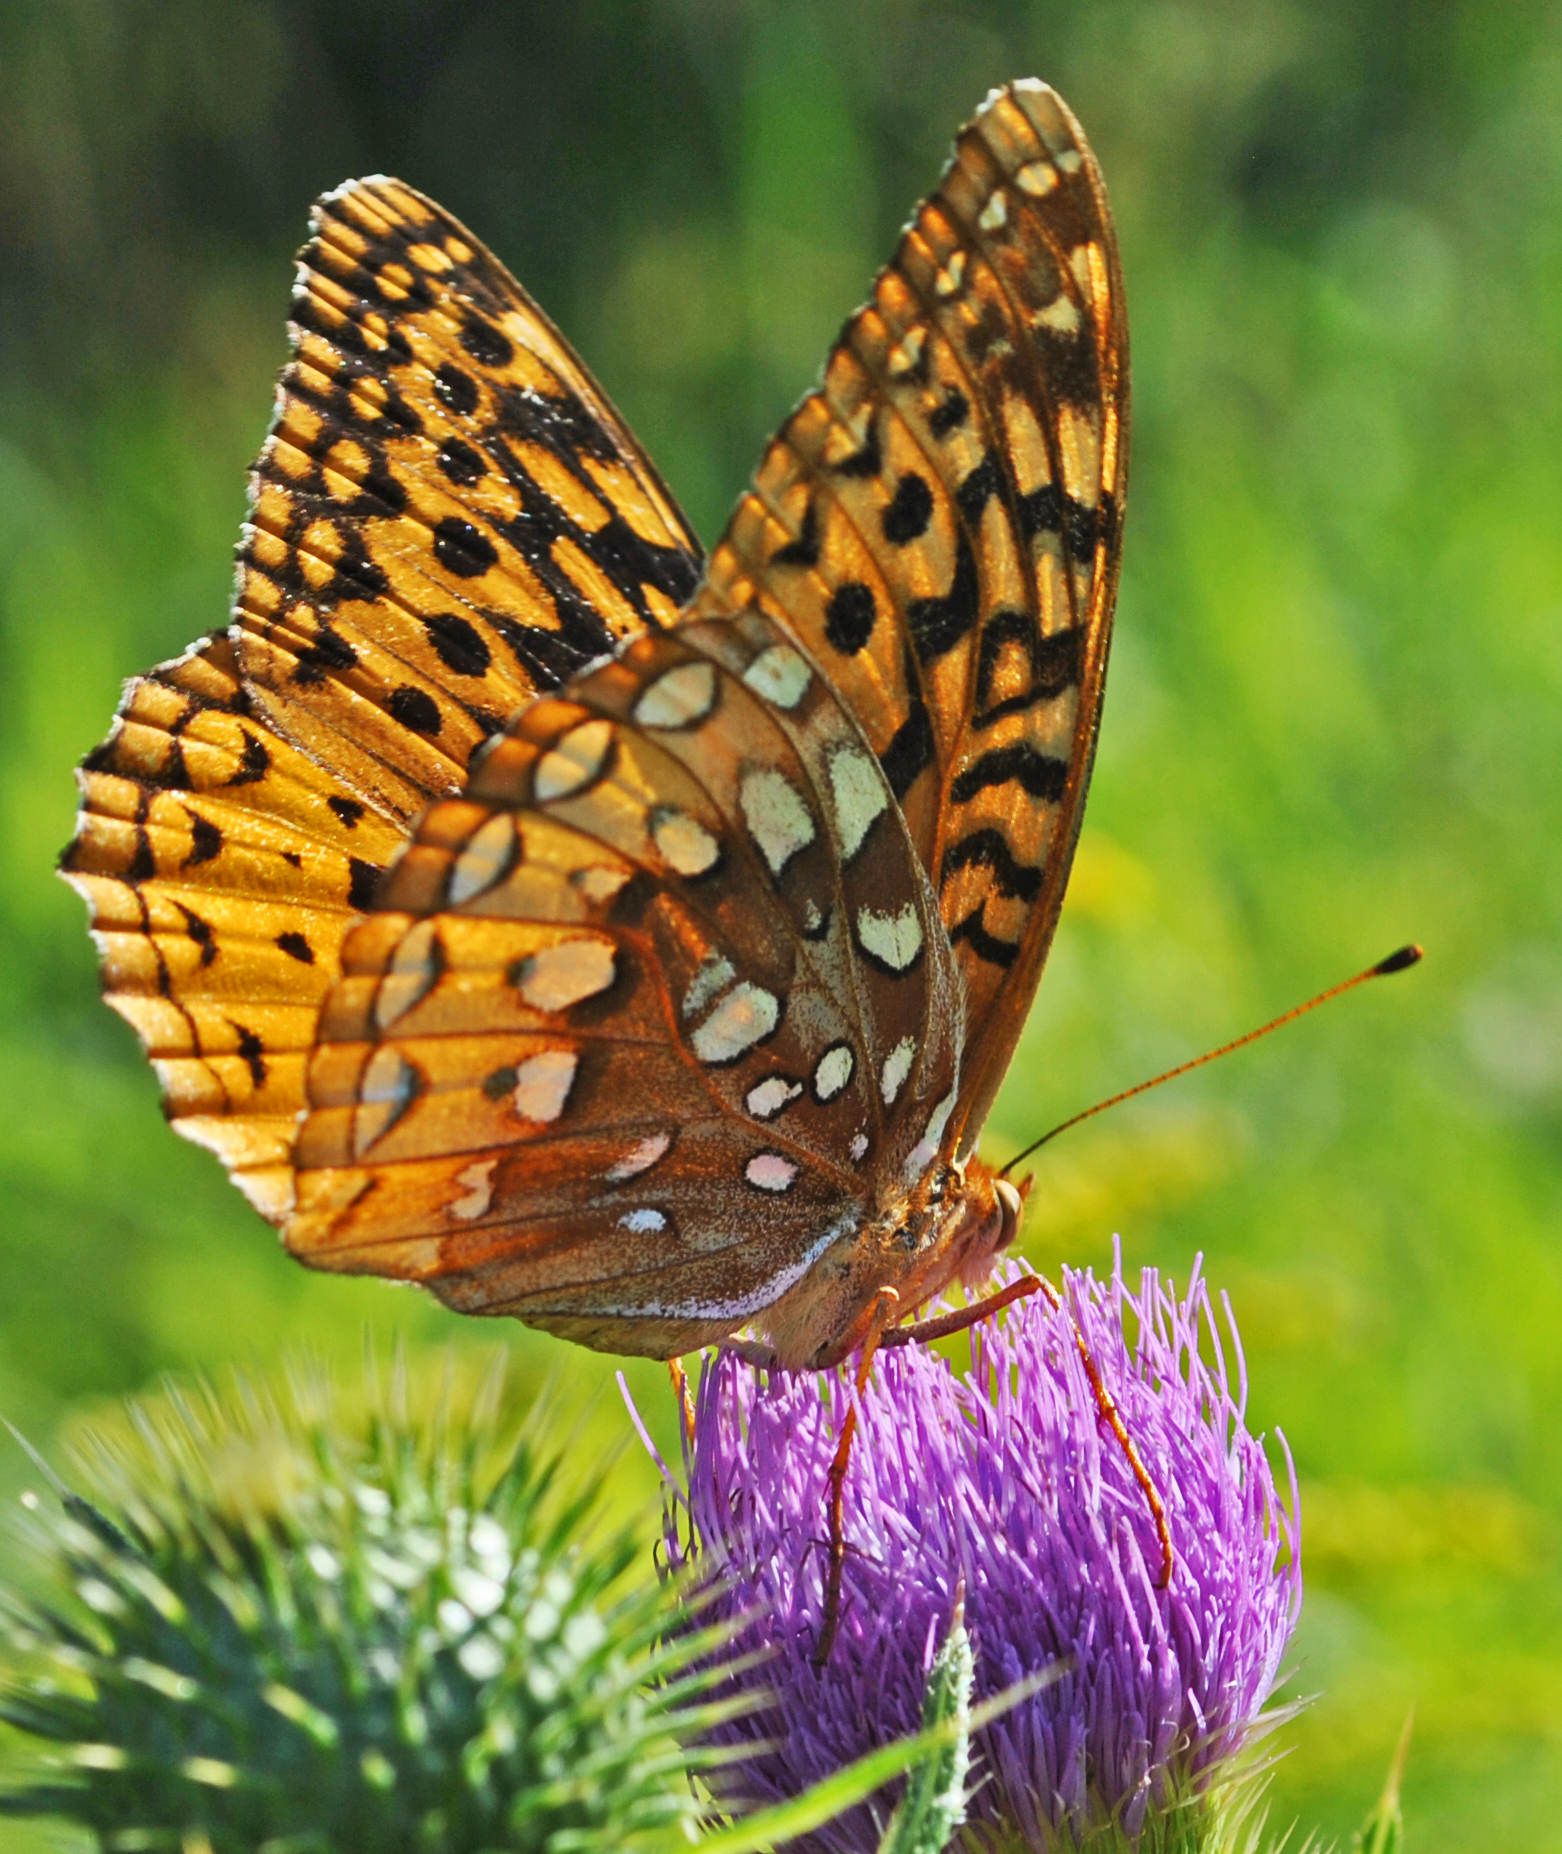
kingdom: Animalia
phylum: Arthropoda
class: Insecta
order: Lepidoptera
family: Nymphalidae
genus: Speyeria
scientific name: Speyeria cybele
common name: Great spangled fritillary
